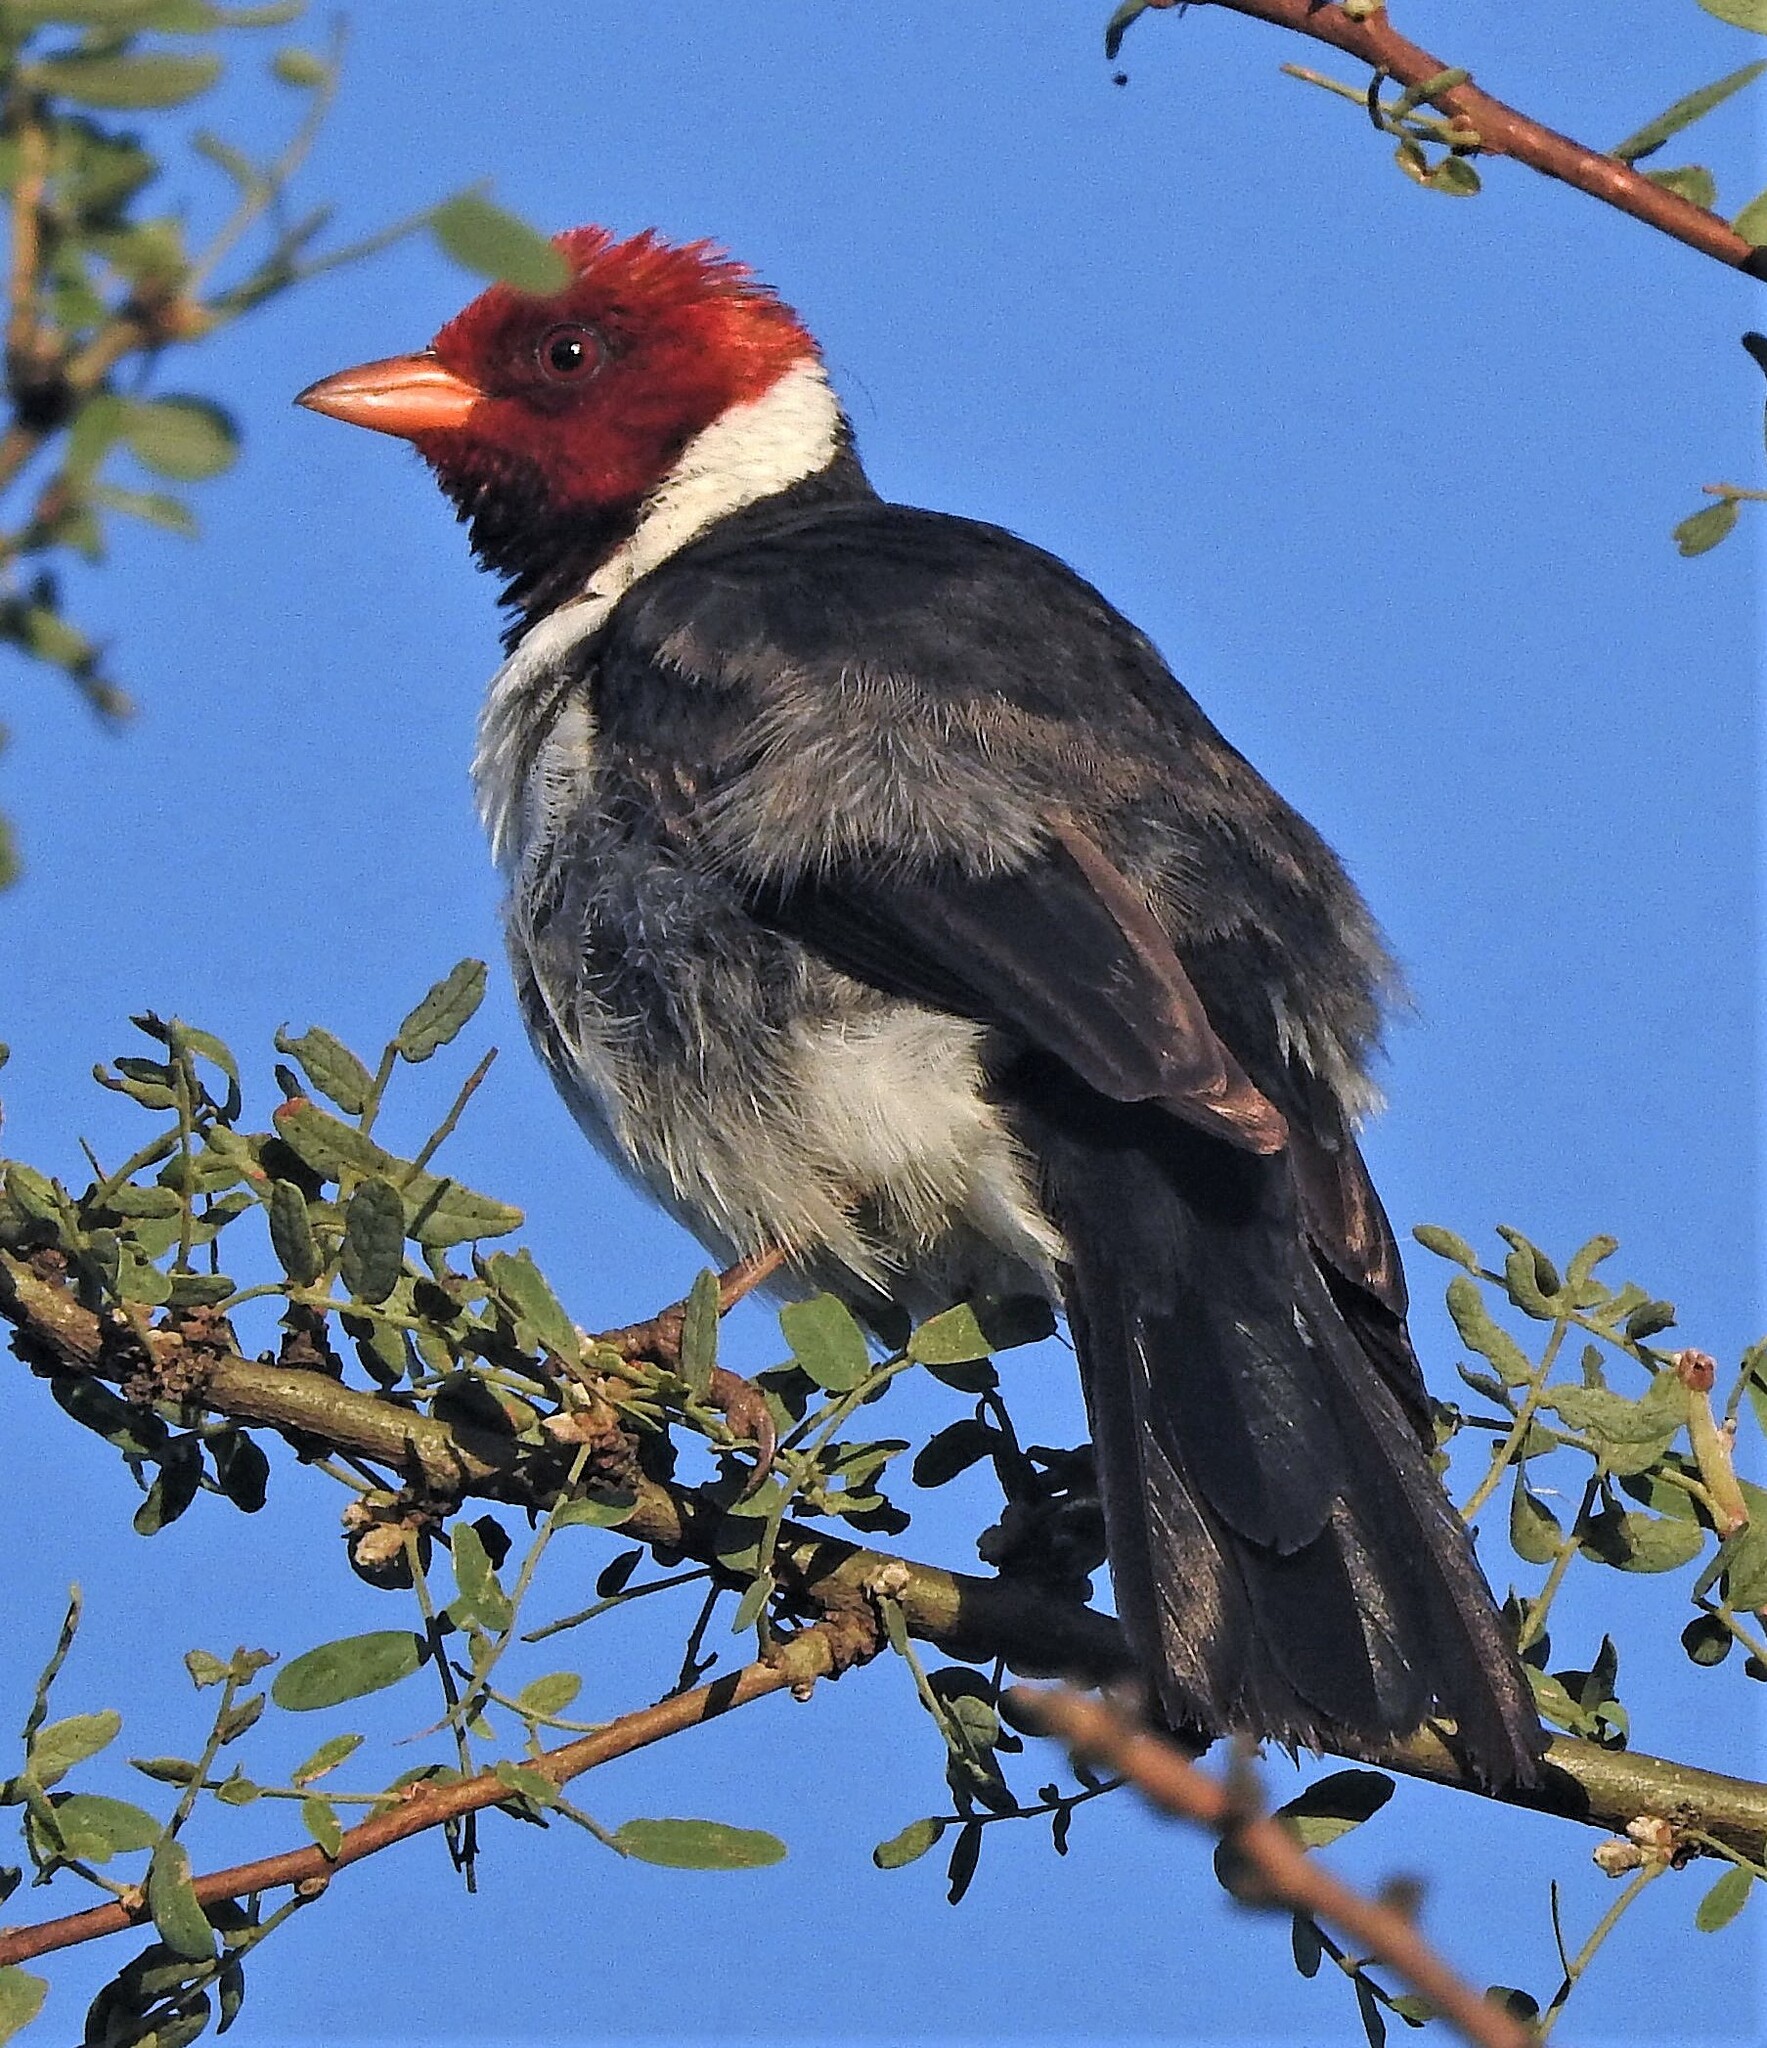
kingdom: Animalia
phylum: Chordata
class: Aves
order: Passeriformes
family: Thraupidae
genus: Paroaria
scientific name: Paroaria capitata
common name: Yellow-billed cardinal
